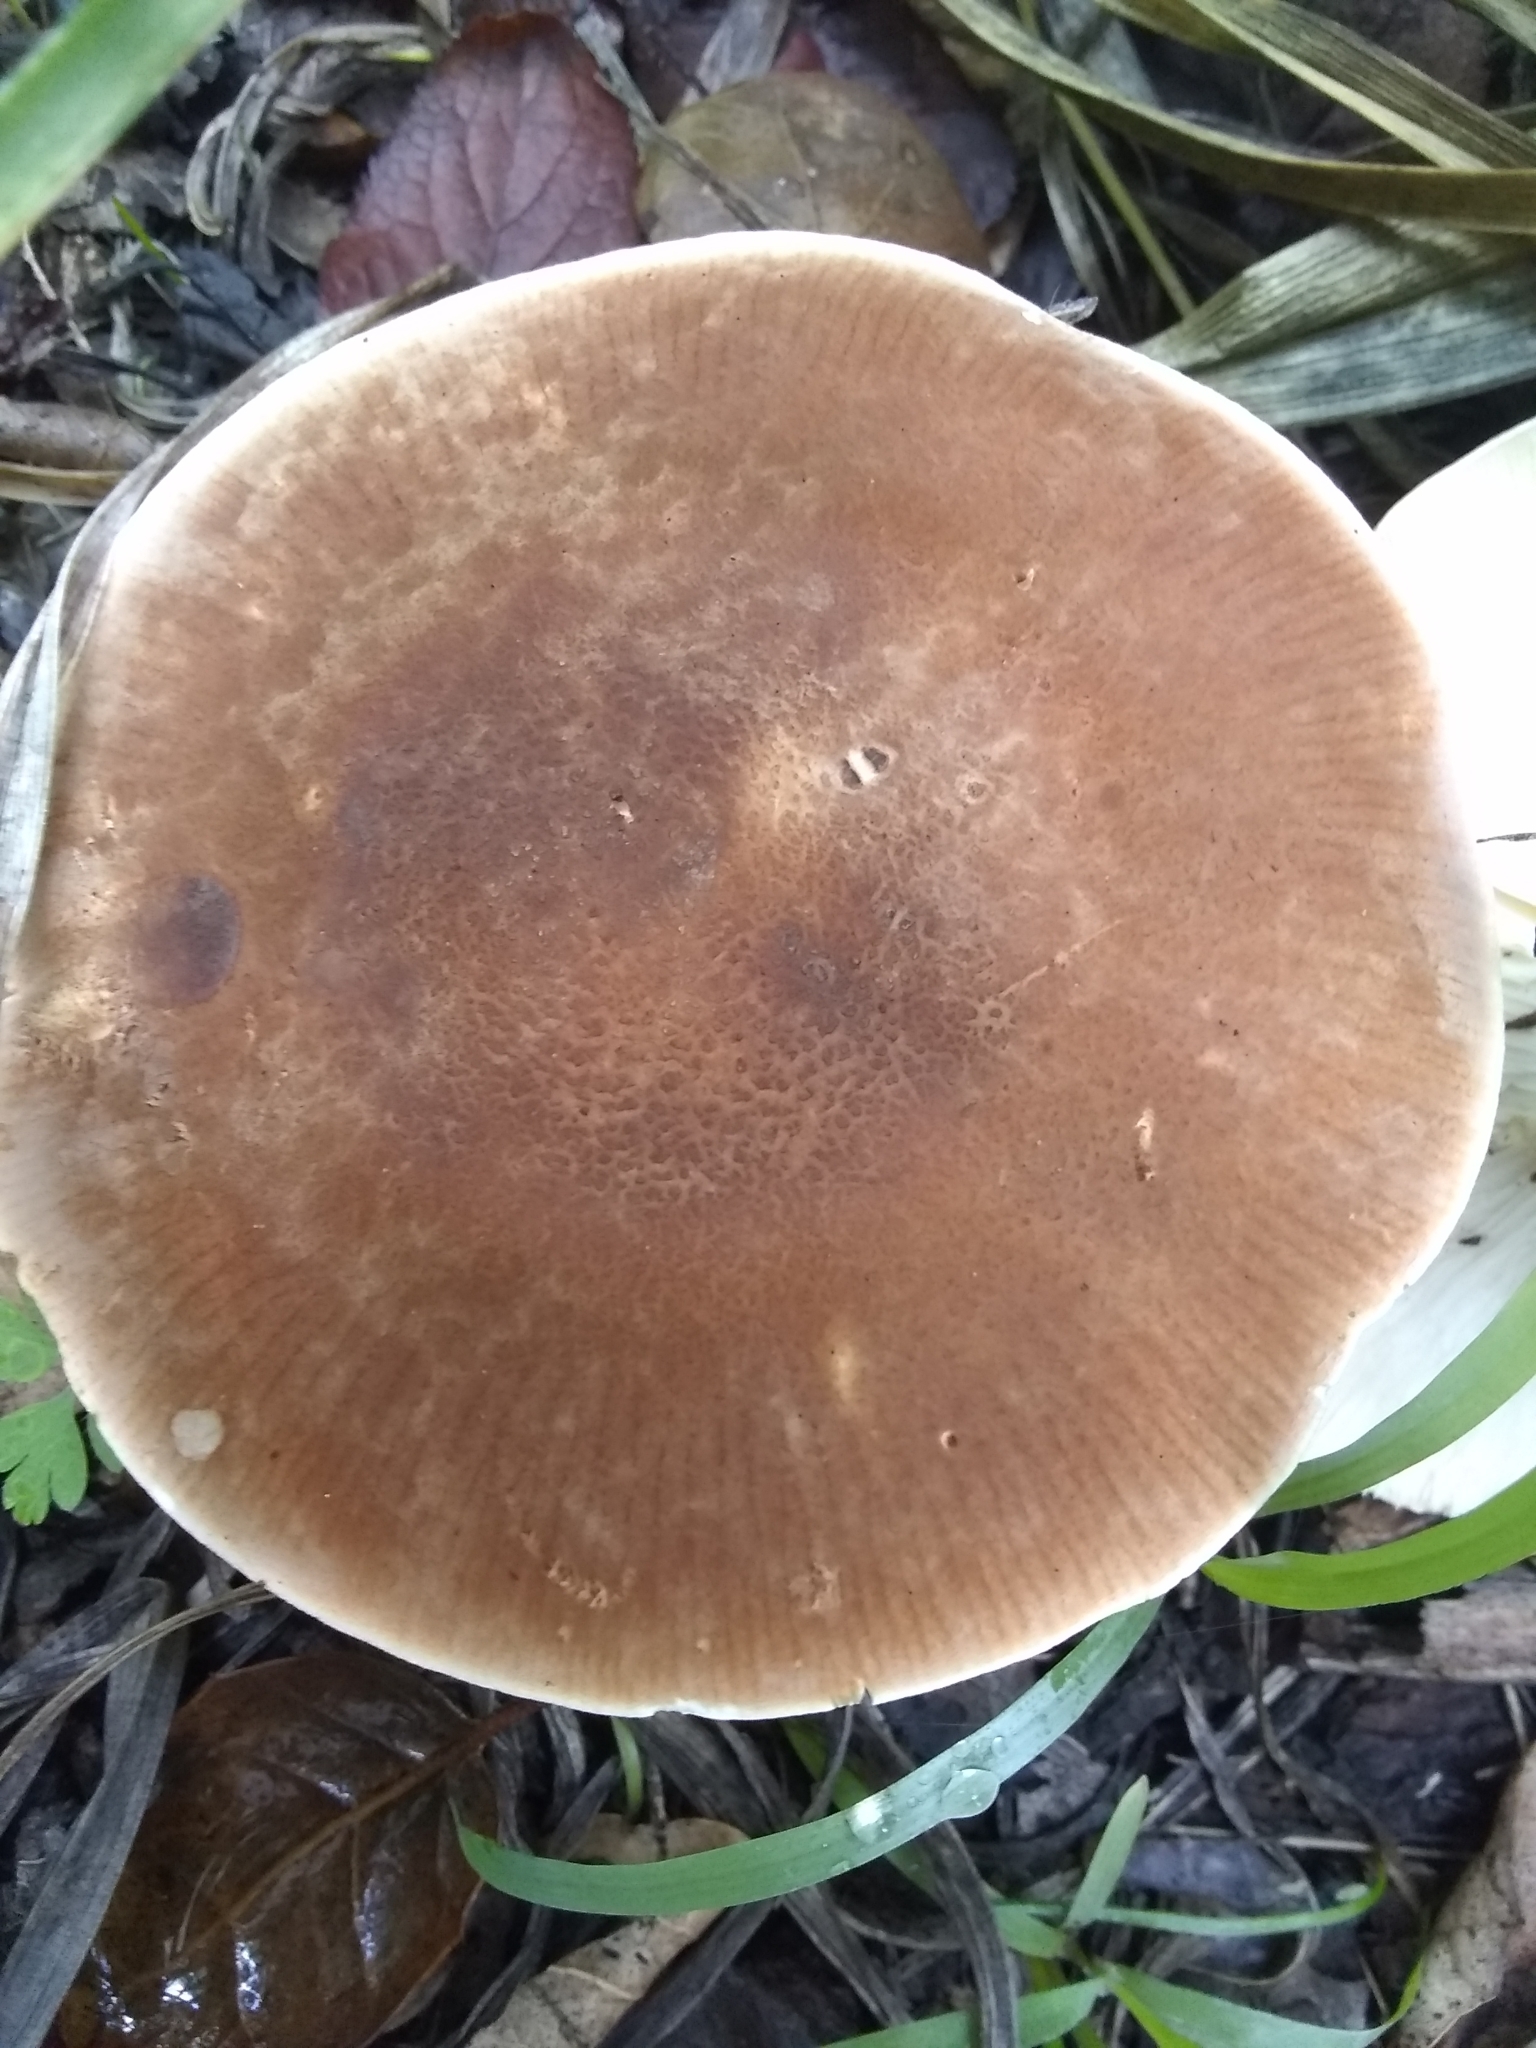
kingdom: Fungi
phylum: Basidiomycota
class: Agaricomycetes
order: Agaricales
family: Tricholomataceae
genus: Leucopaxillus
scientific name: Leucopaxillus gentianeus
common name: Bitter funnel
